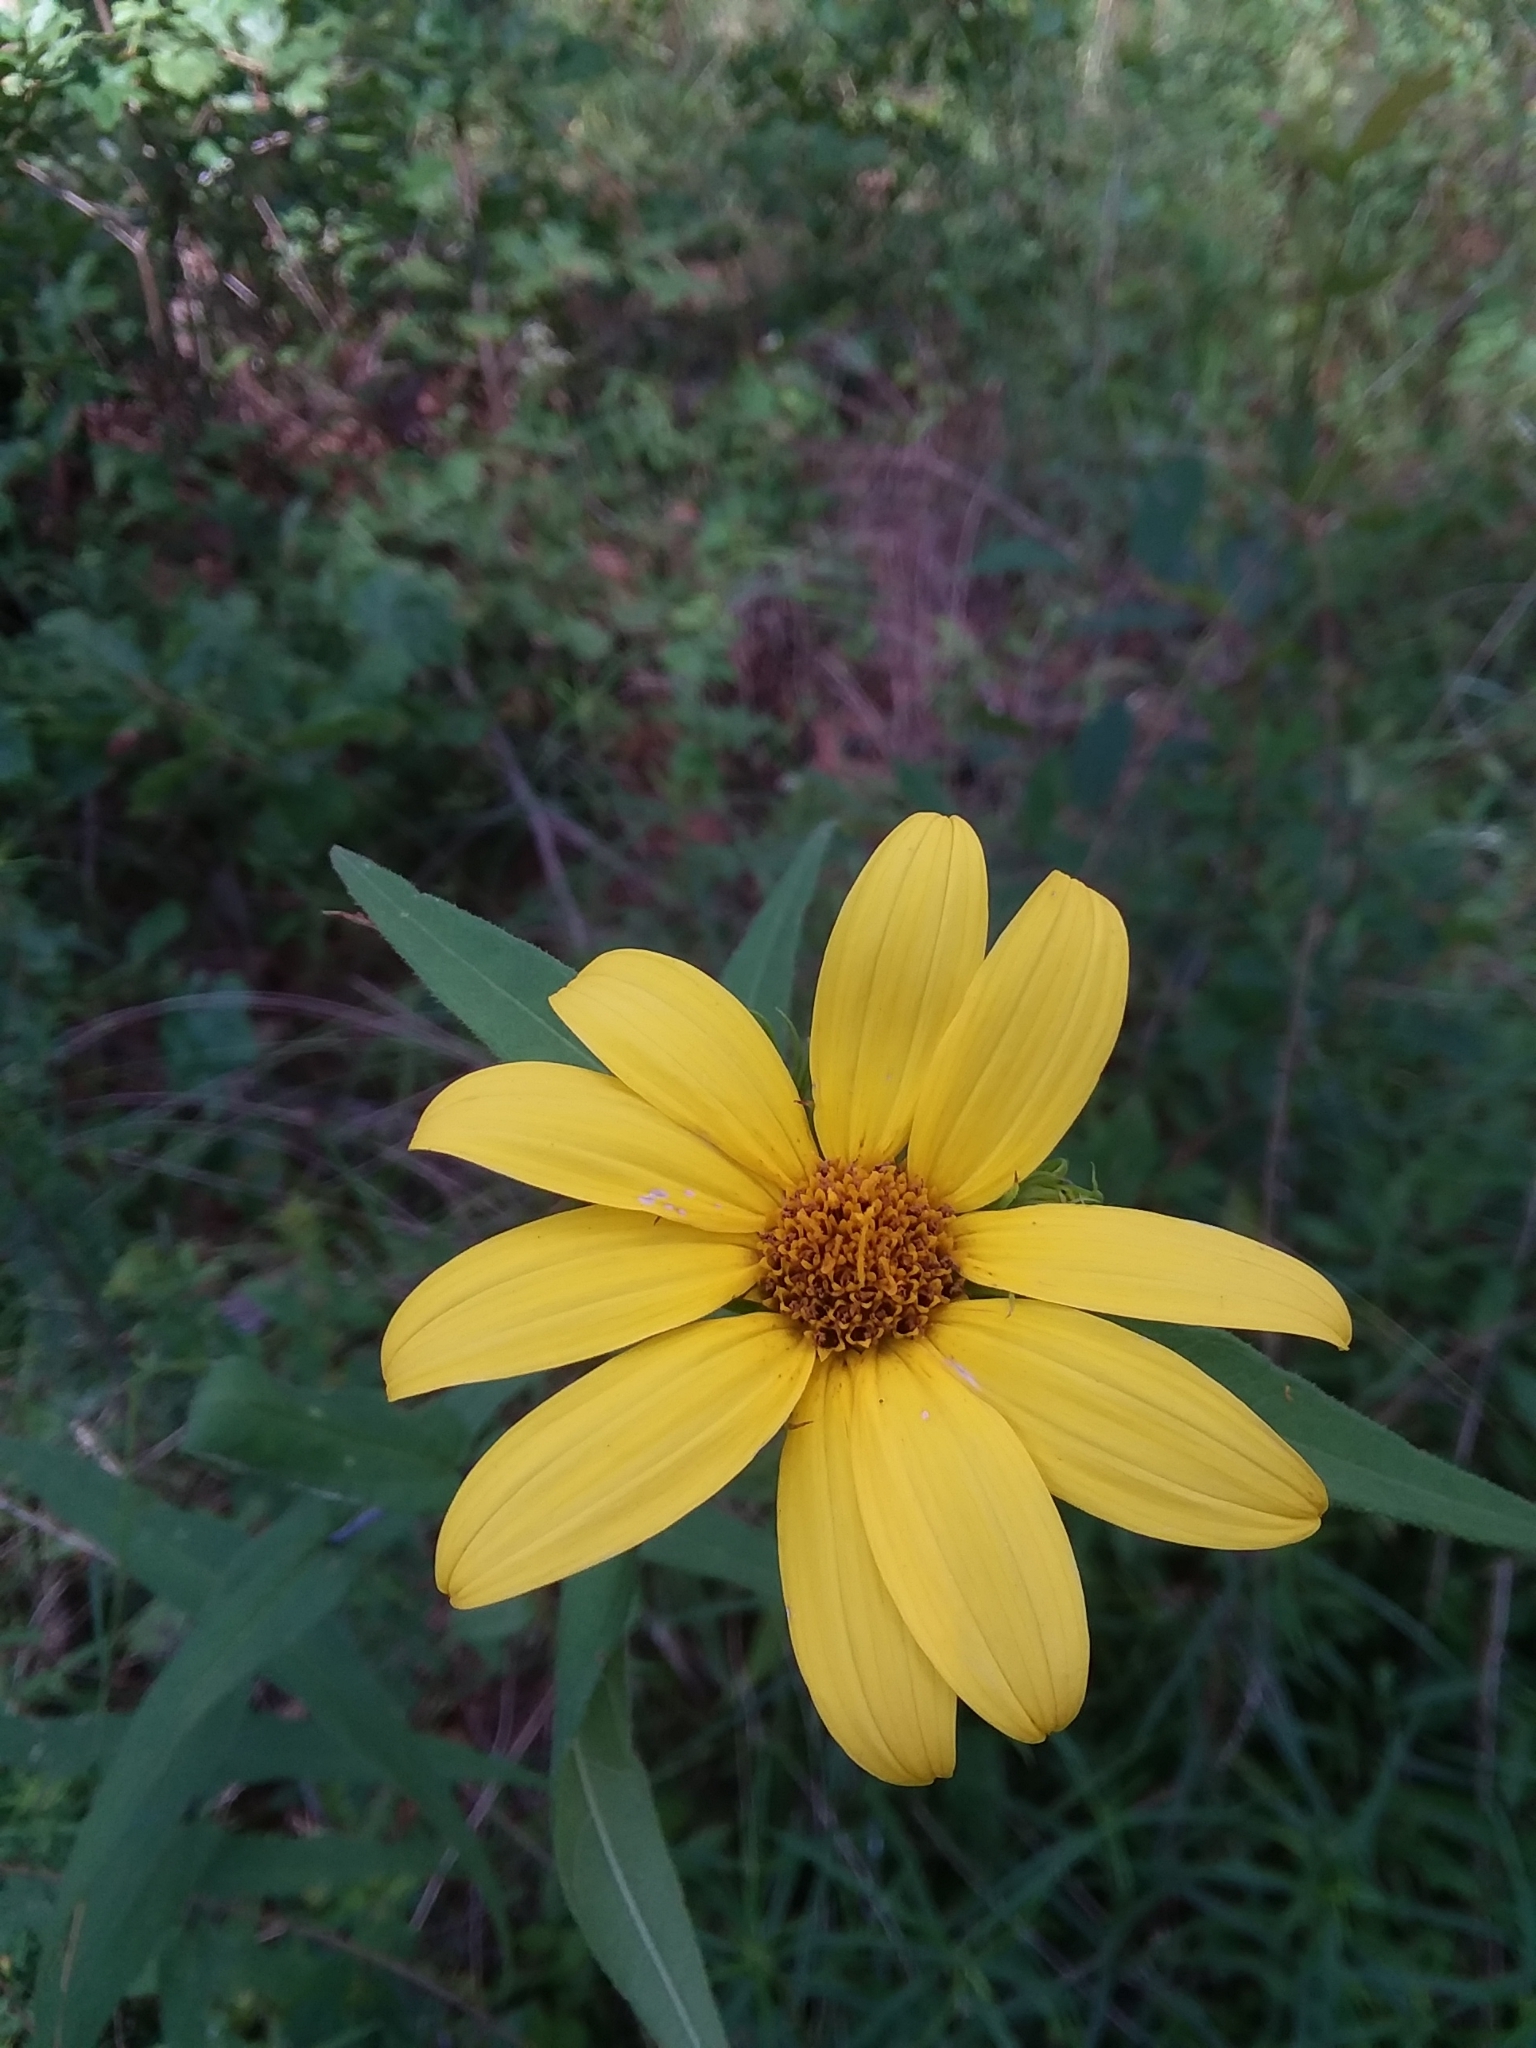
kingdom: Plantae
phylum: Tracheophyta
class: Magnoliopsida
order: Asterales
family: Asteraceae
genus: Helianthus
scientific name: Helianthus divaricatus
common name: Divergent sunflower
